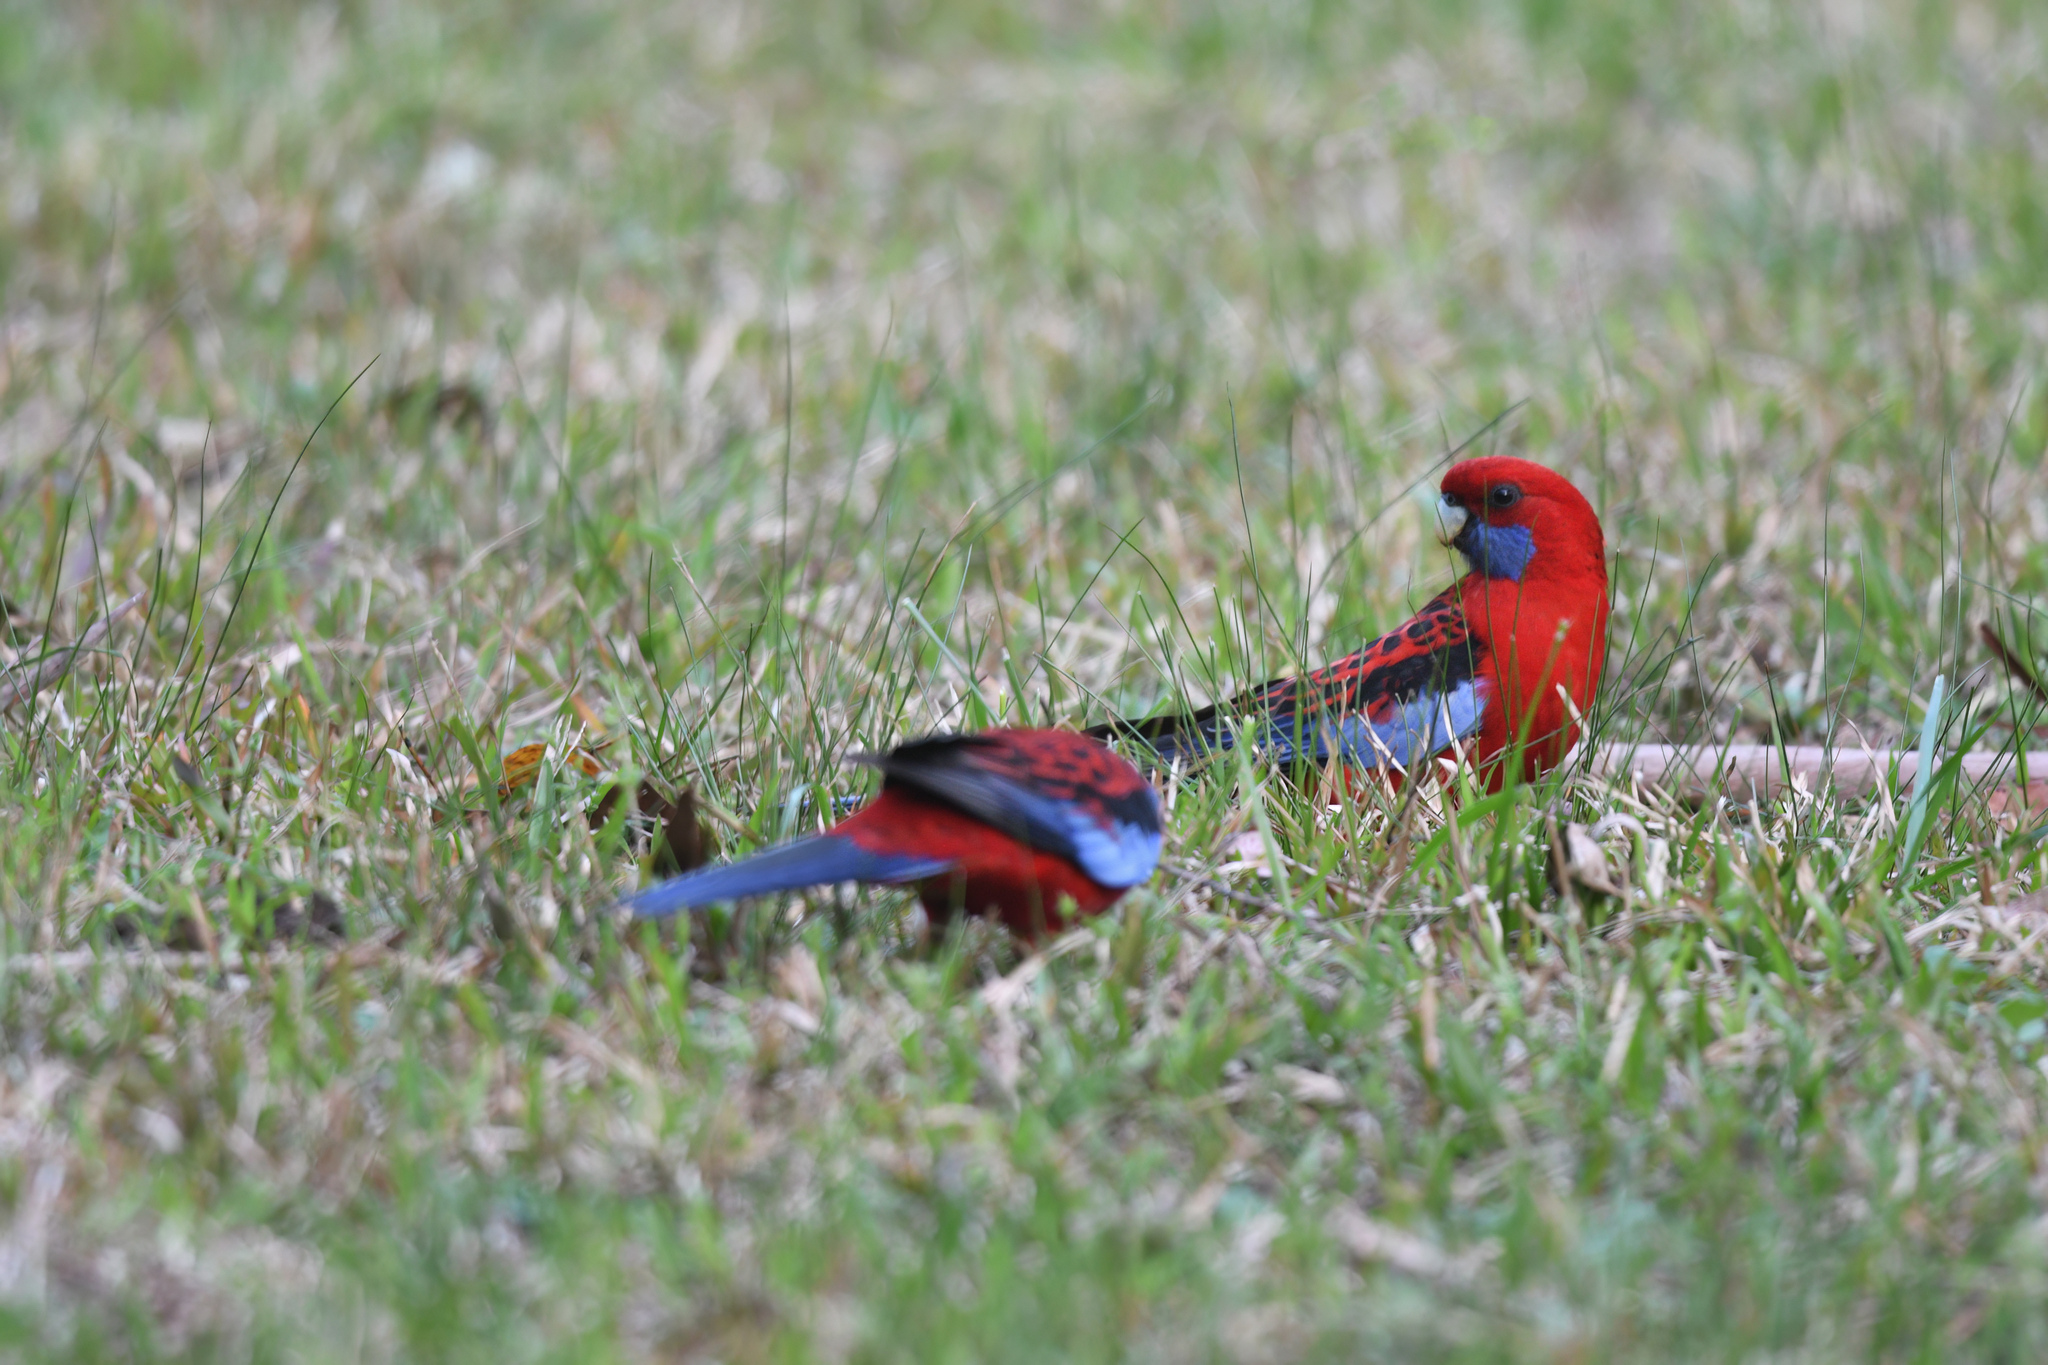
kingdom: Animalia
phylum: Chordata
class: Aves
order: Psittaciformes
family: Psittacidae
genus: Platycercus
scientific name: Platycercus elegans
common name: Crimson rosella
